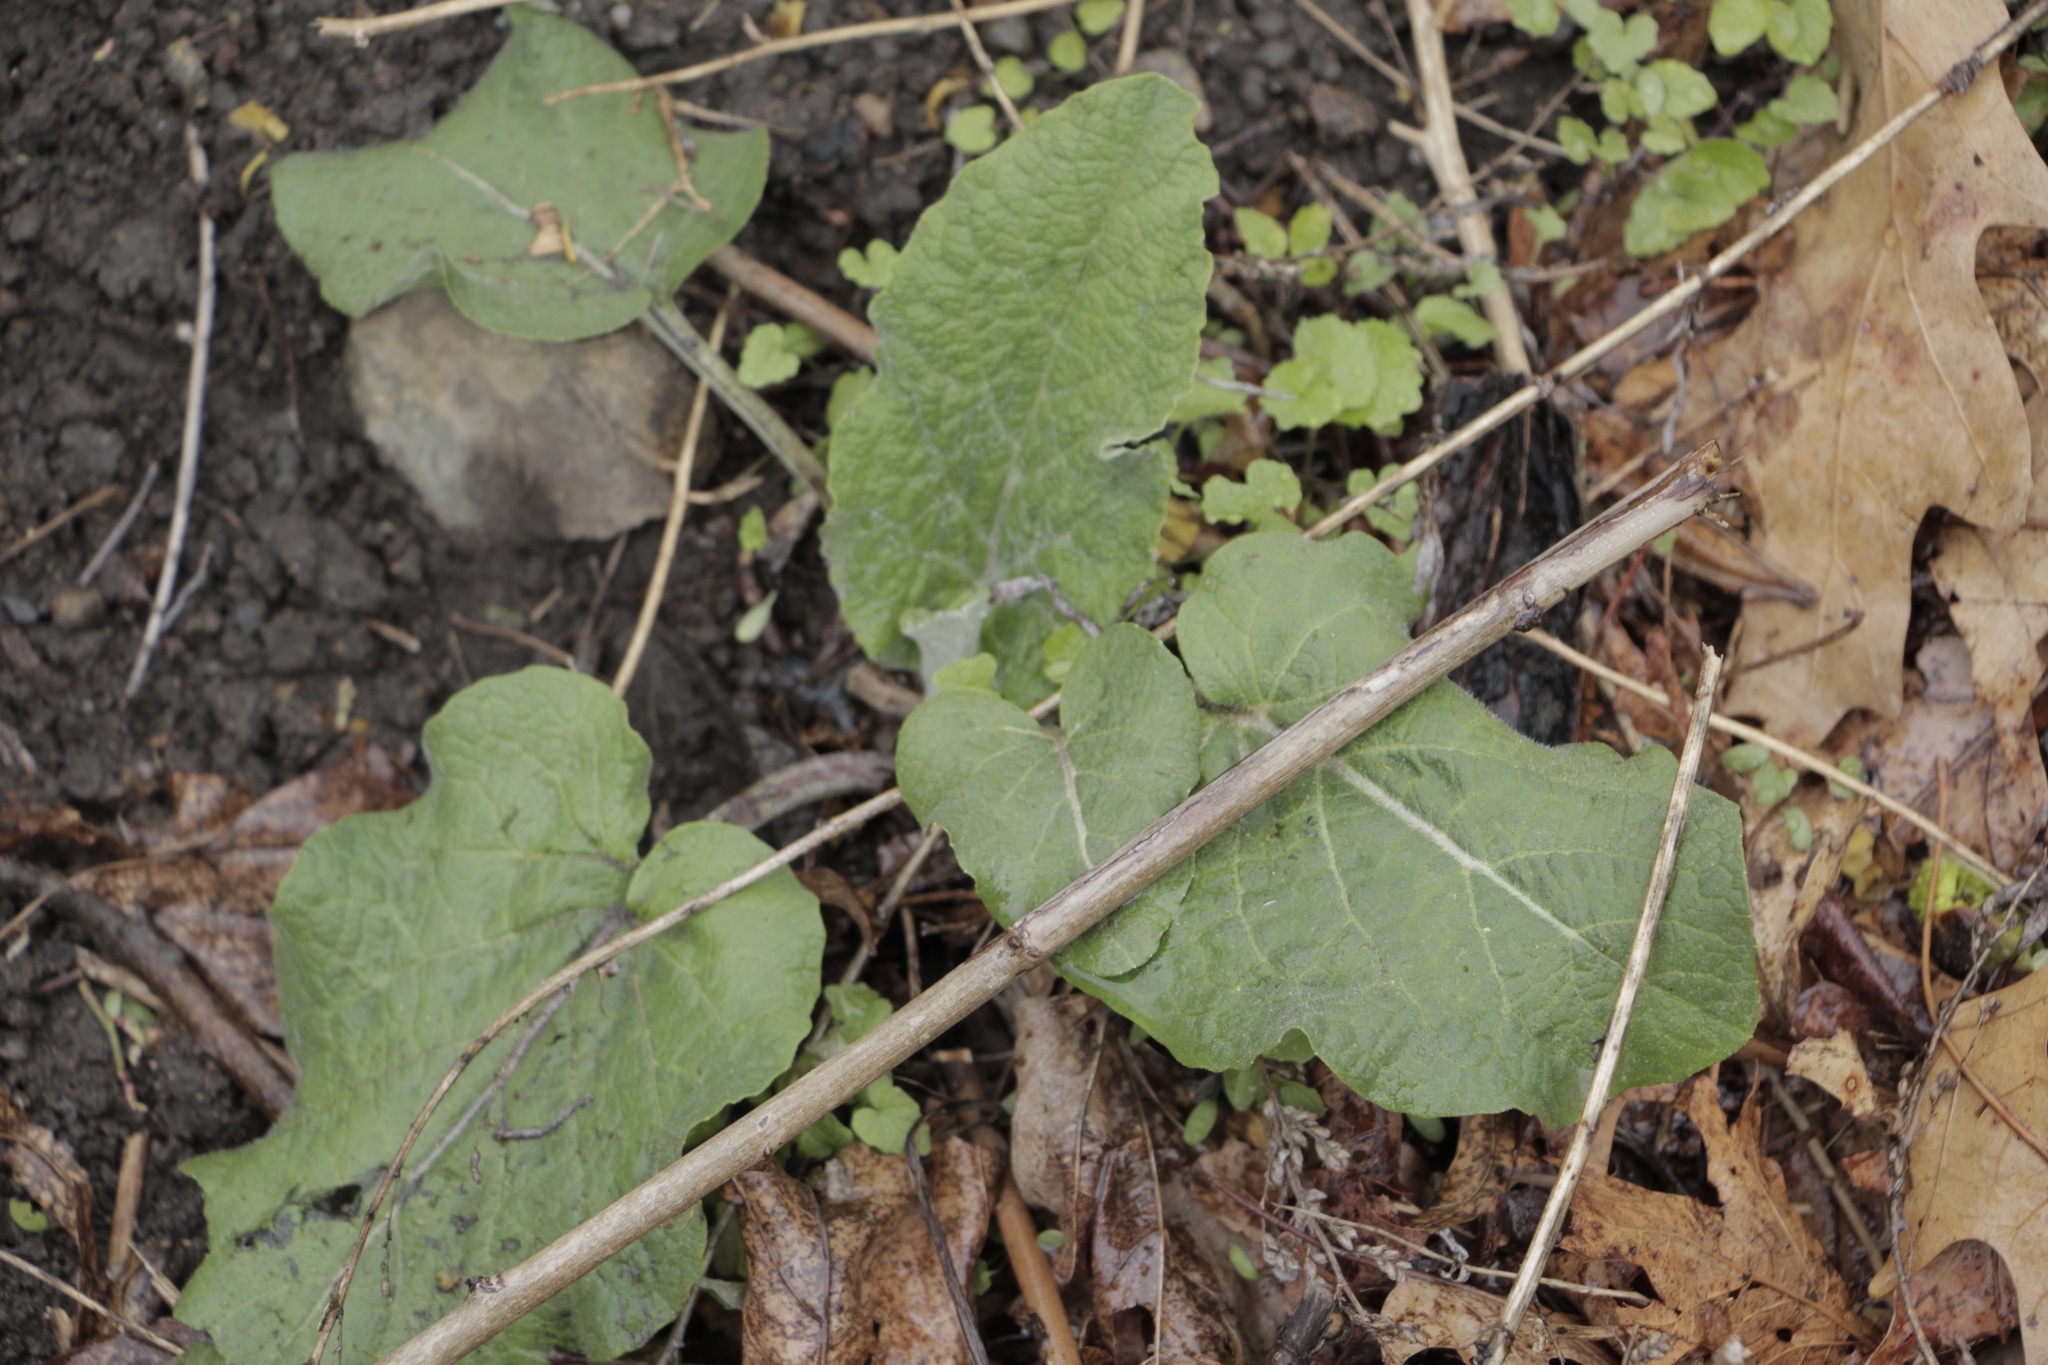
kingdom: Plantae
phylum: Tracheophyta
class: Magnoliopsida
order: Asterales
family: Asteraceae
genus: Arctium
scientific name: Arctium
